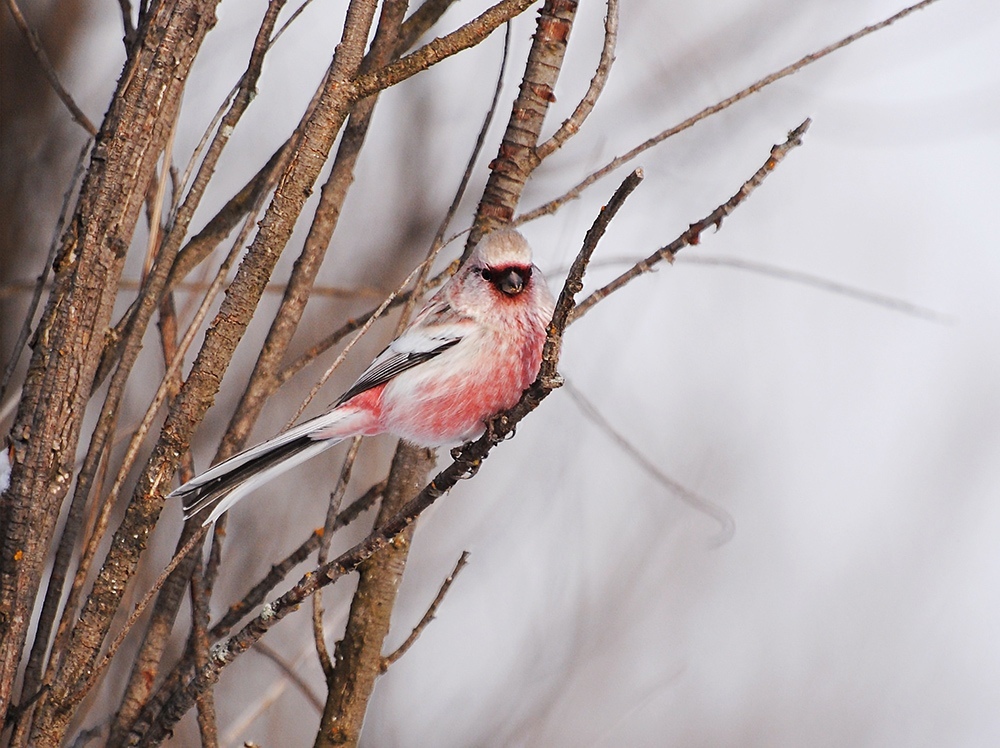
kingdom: Animalia
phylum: Chordata
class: Aves
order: Passeriformes
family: Fringillidae
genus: Carpodacus
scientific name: Carpodacus sibiricus
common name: Long-tailed rosefinch
